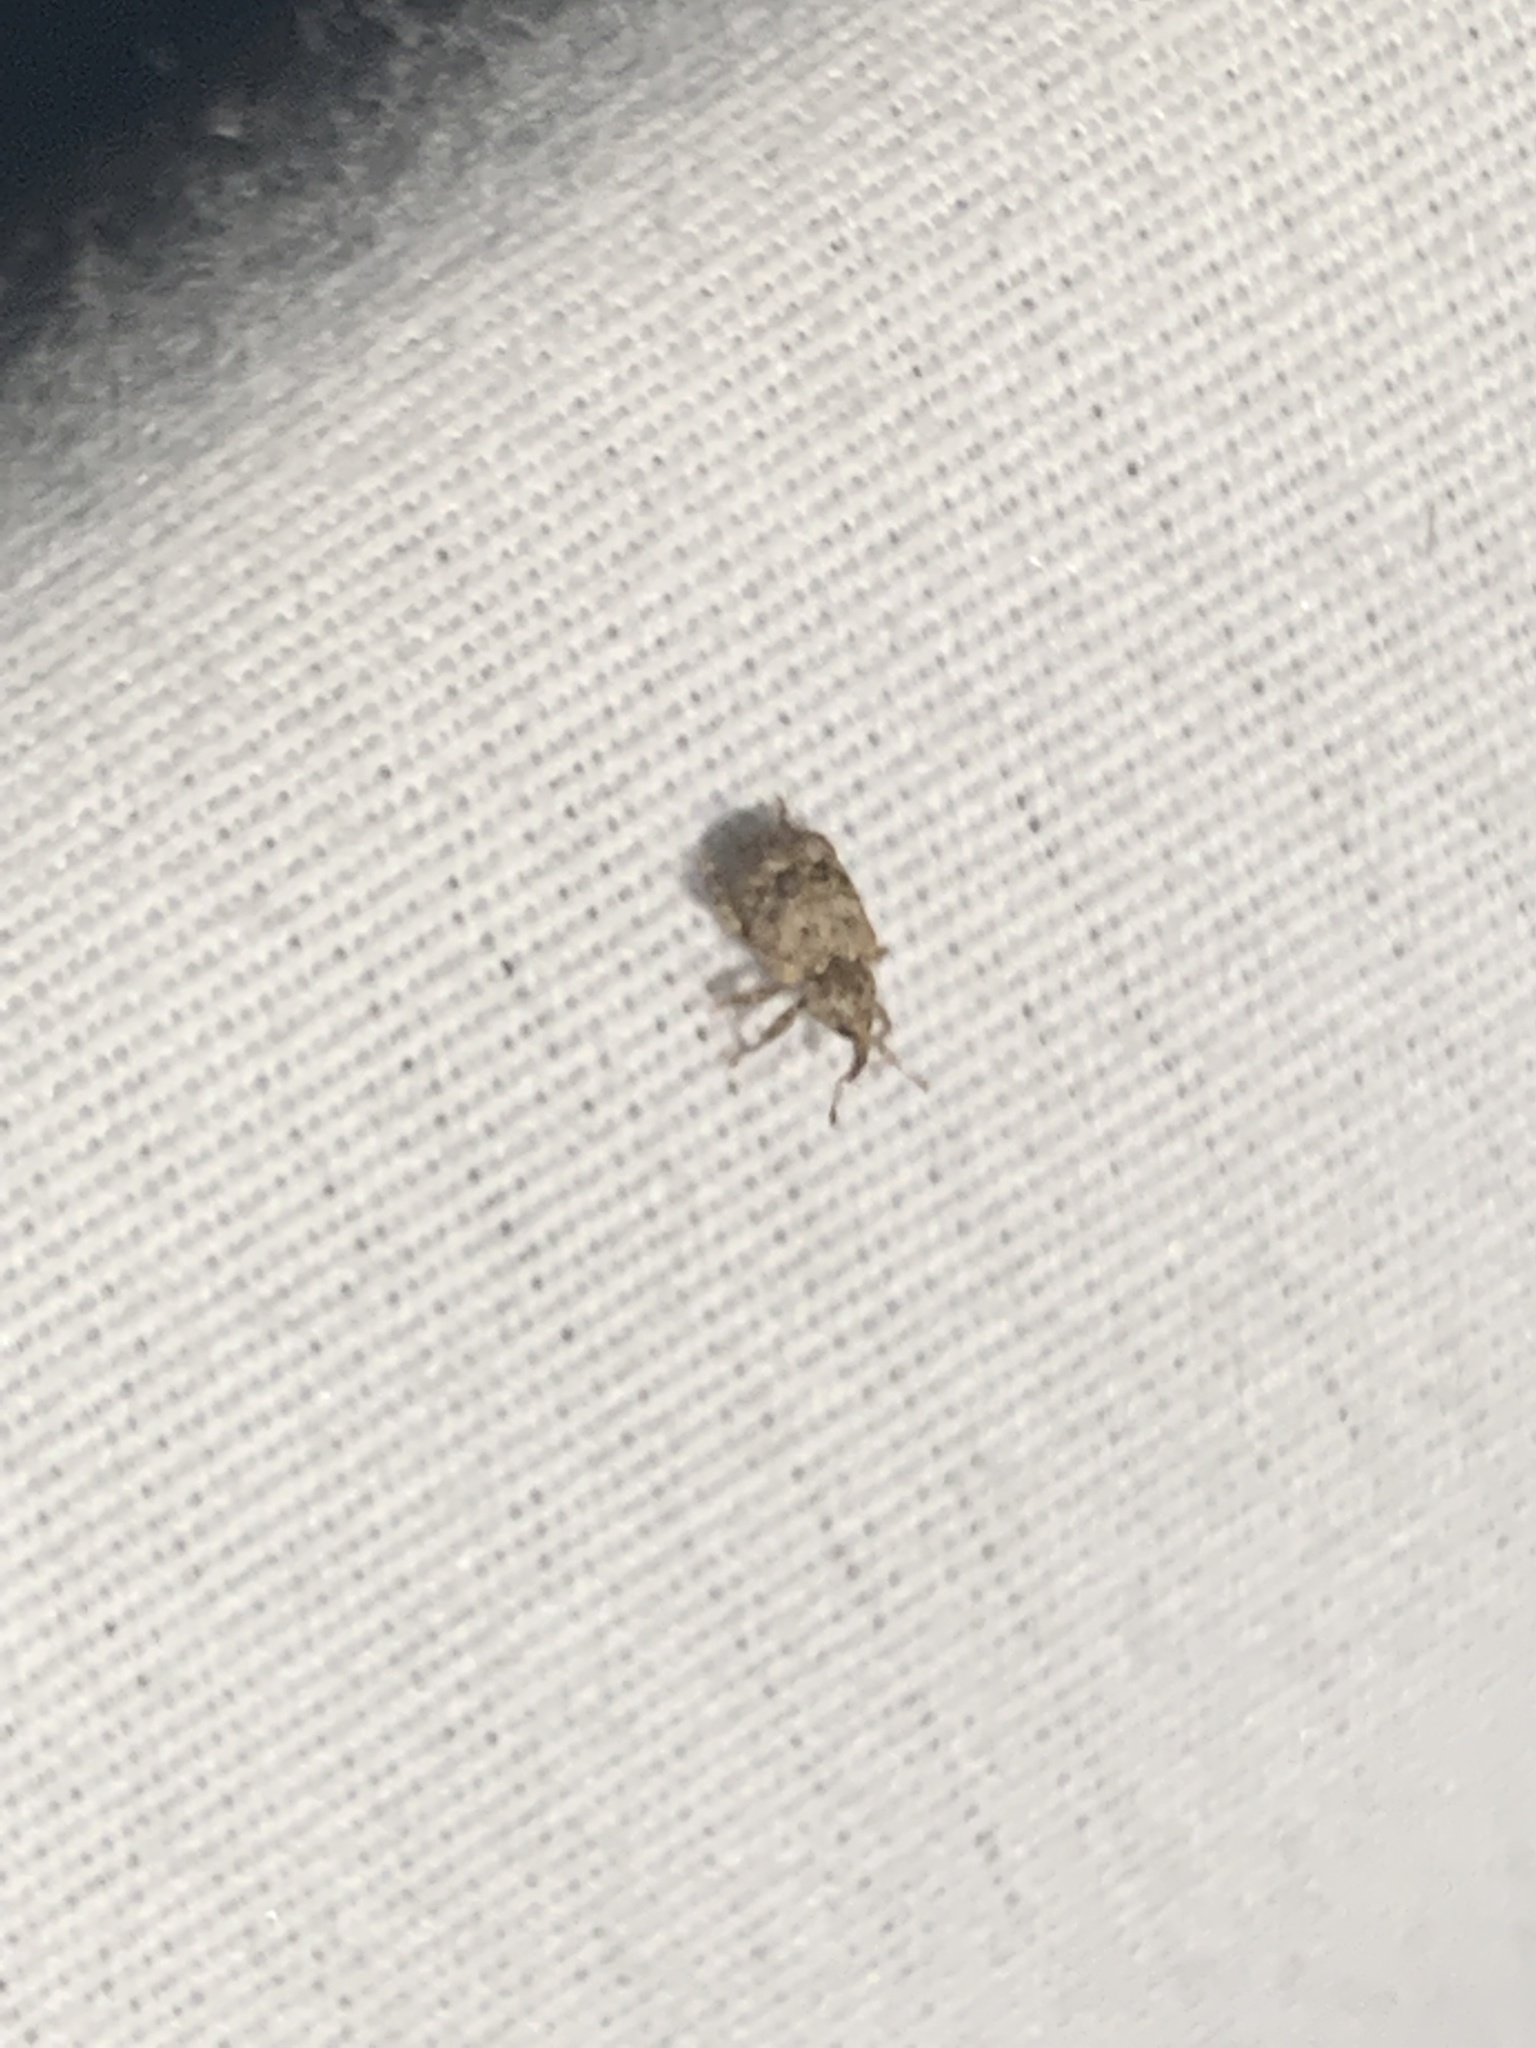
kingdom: Animalia
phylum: Arthropoda
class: Insecta
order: Coleoptera
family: Curculionidae
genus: Conotrachelus
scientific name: Conotrachelus recessus
